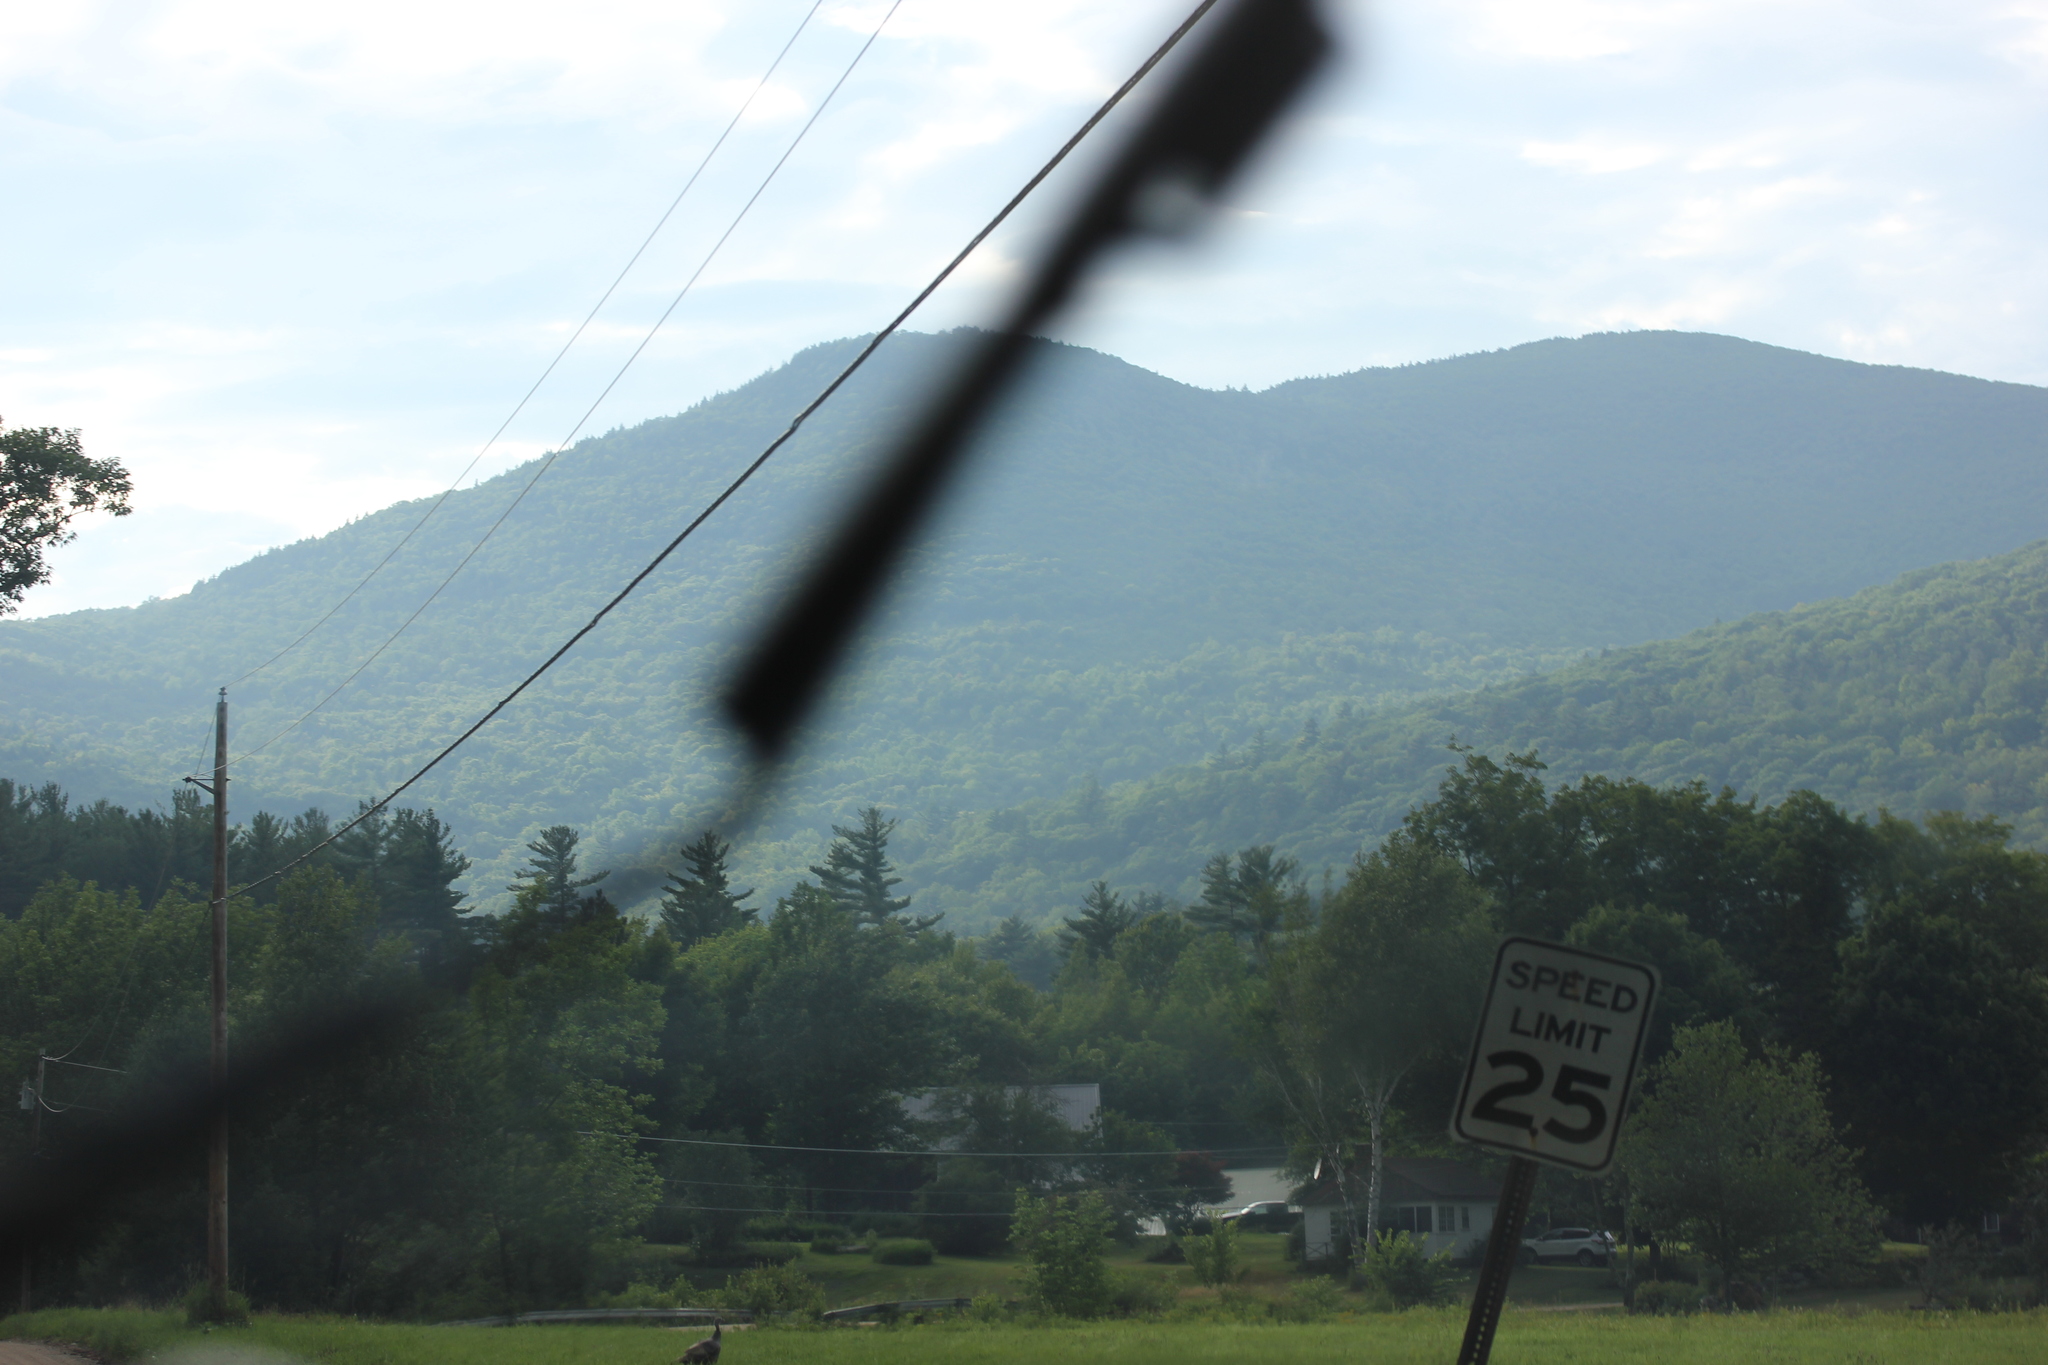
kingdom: Plantae
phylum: Tracheophyta
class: Pinopsida
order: Pinales
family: Pinaceae
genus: Pinus
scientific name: Pinus strobus
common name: Weymouth pine
